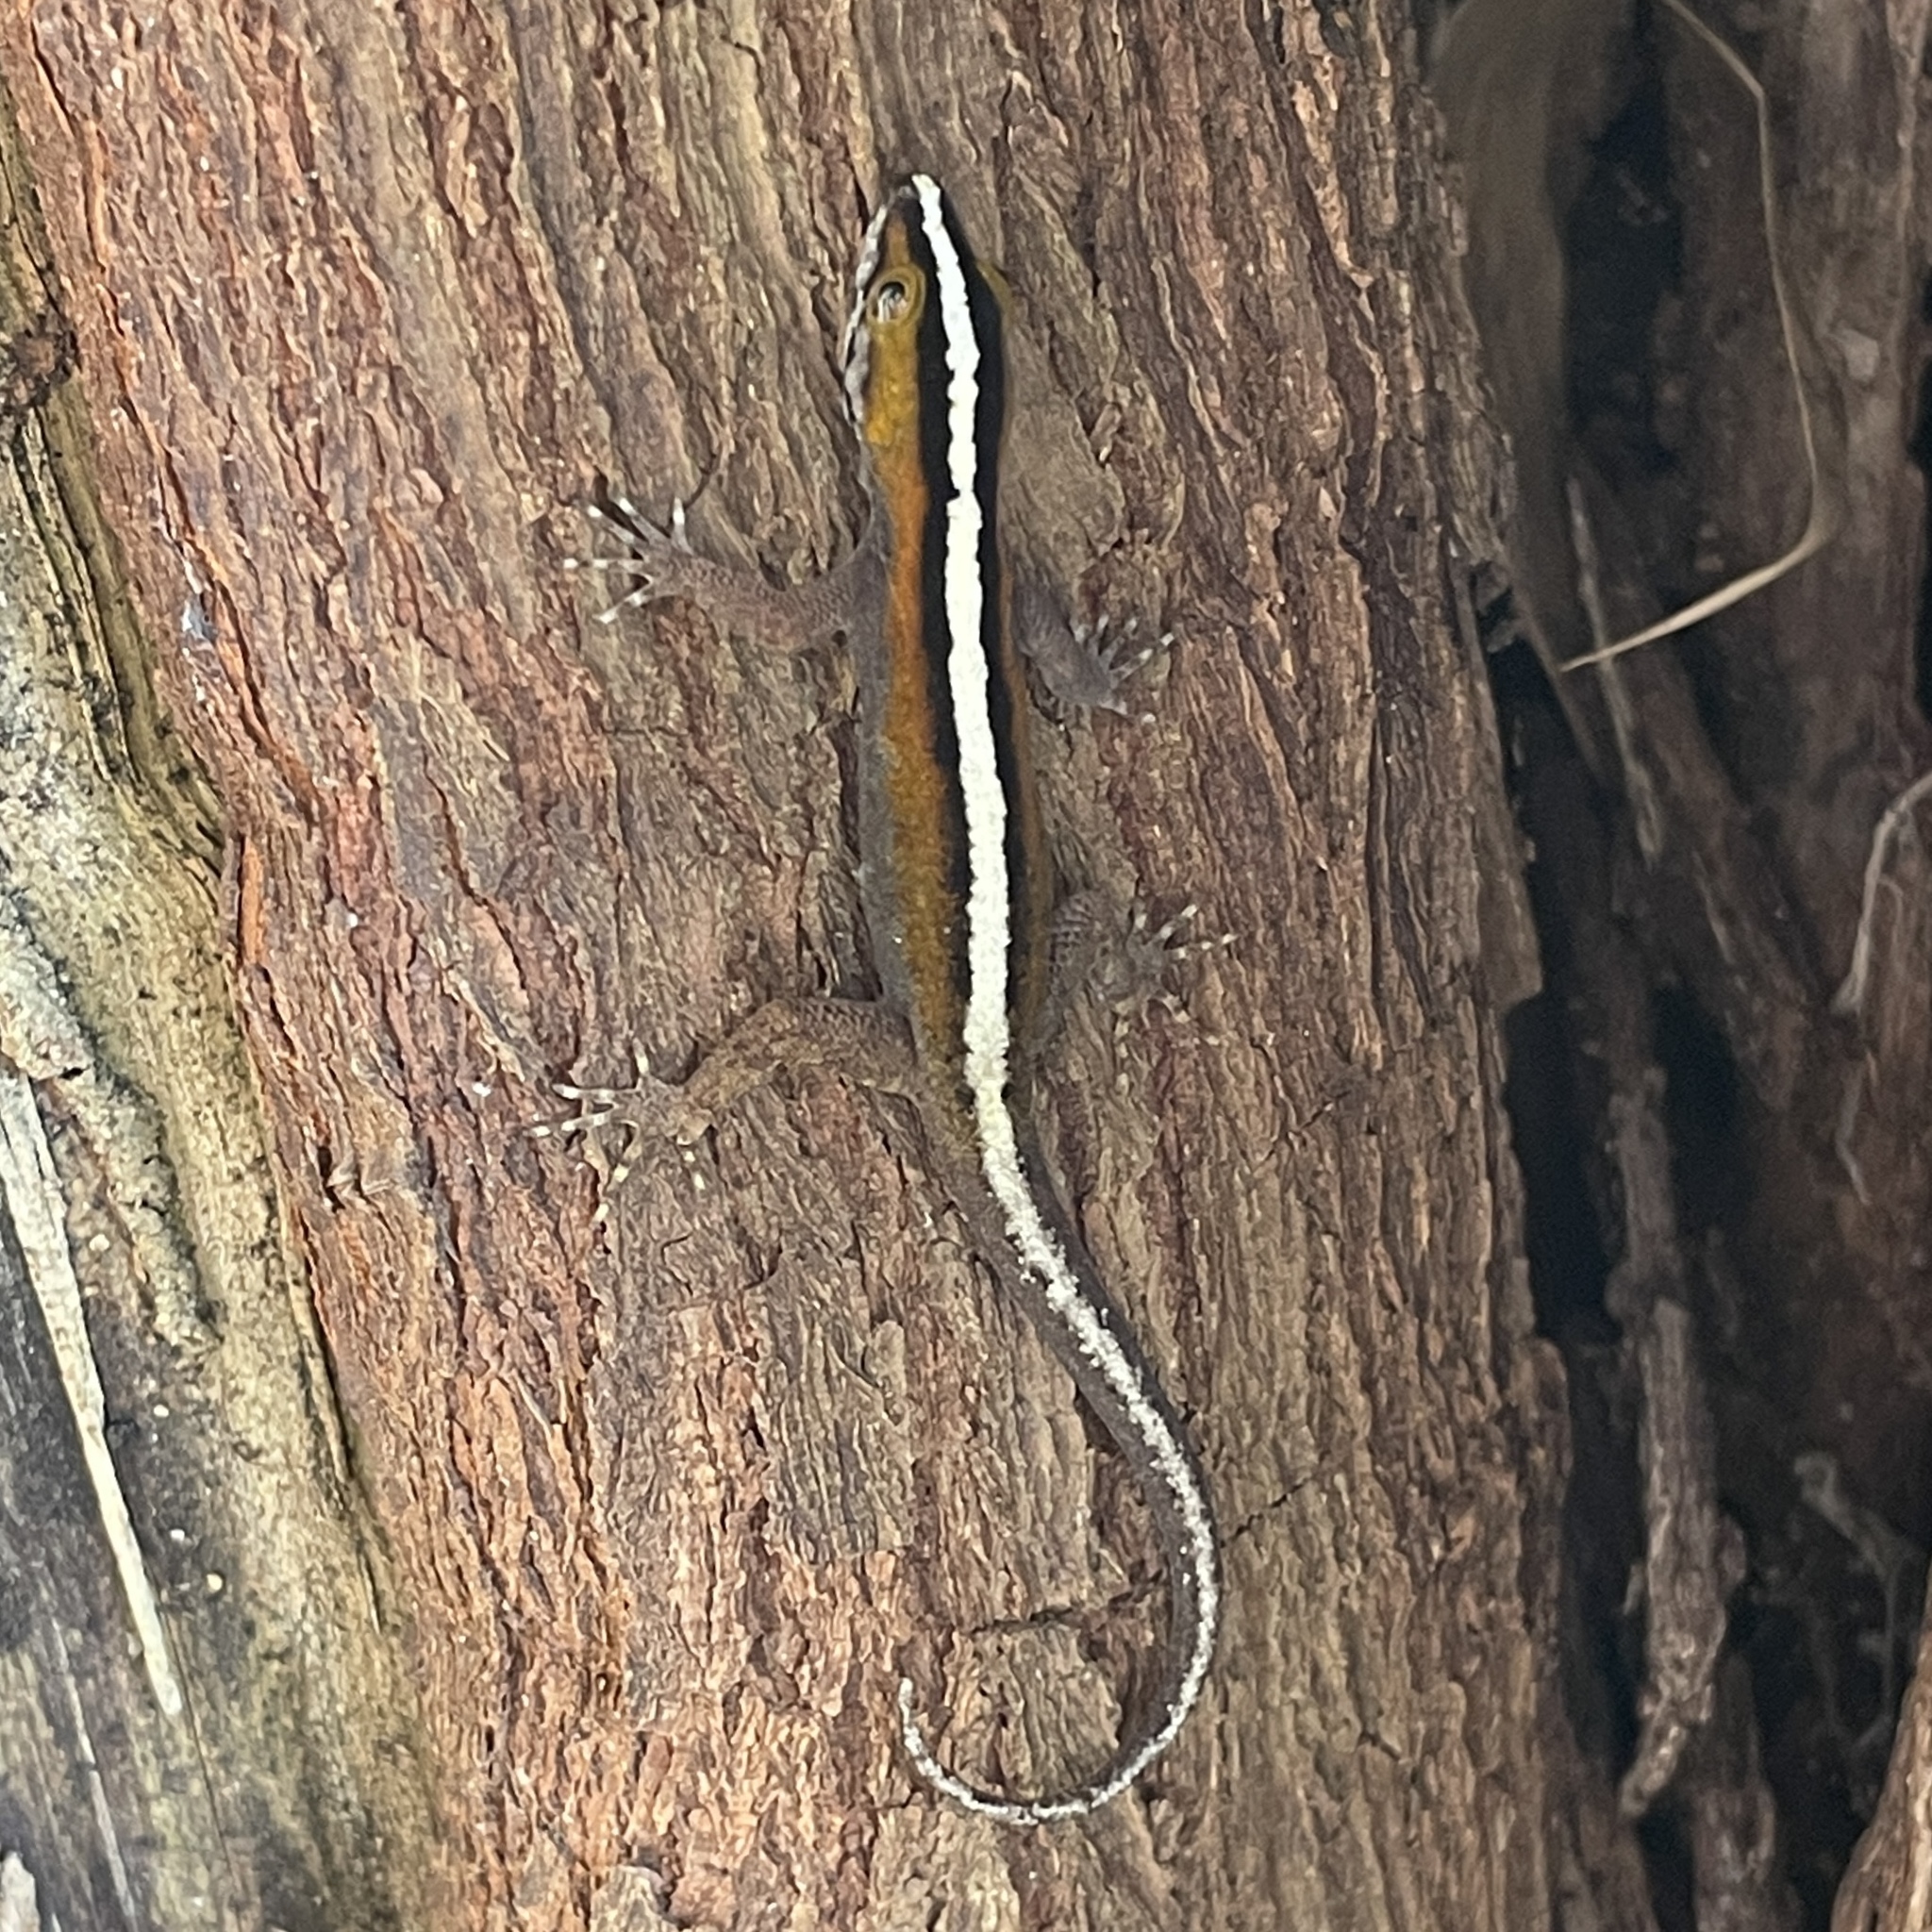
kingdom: Animalia
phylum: Chordata
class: Squamata
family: Sphaerodactylidae
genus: Gonatodes
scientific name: Gonatodes vittatus
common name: Wiegmann's striped gecko
